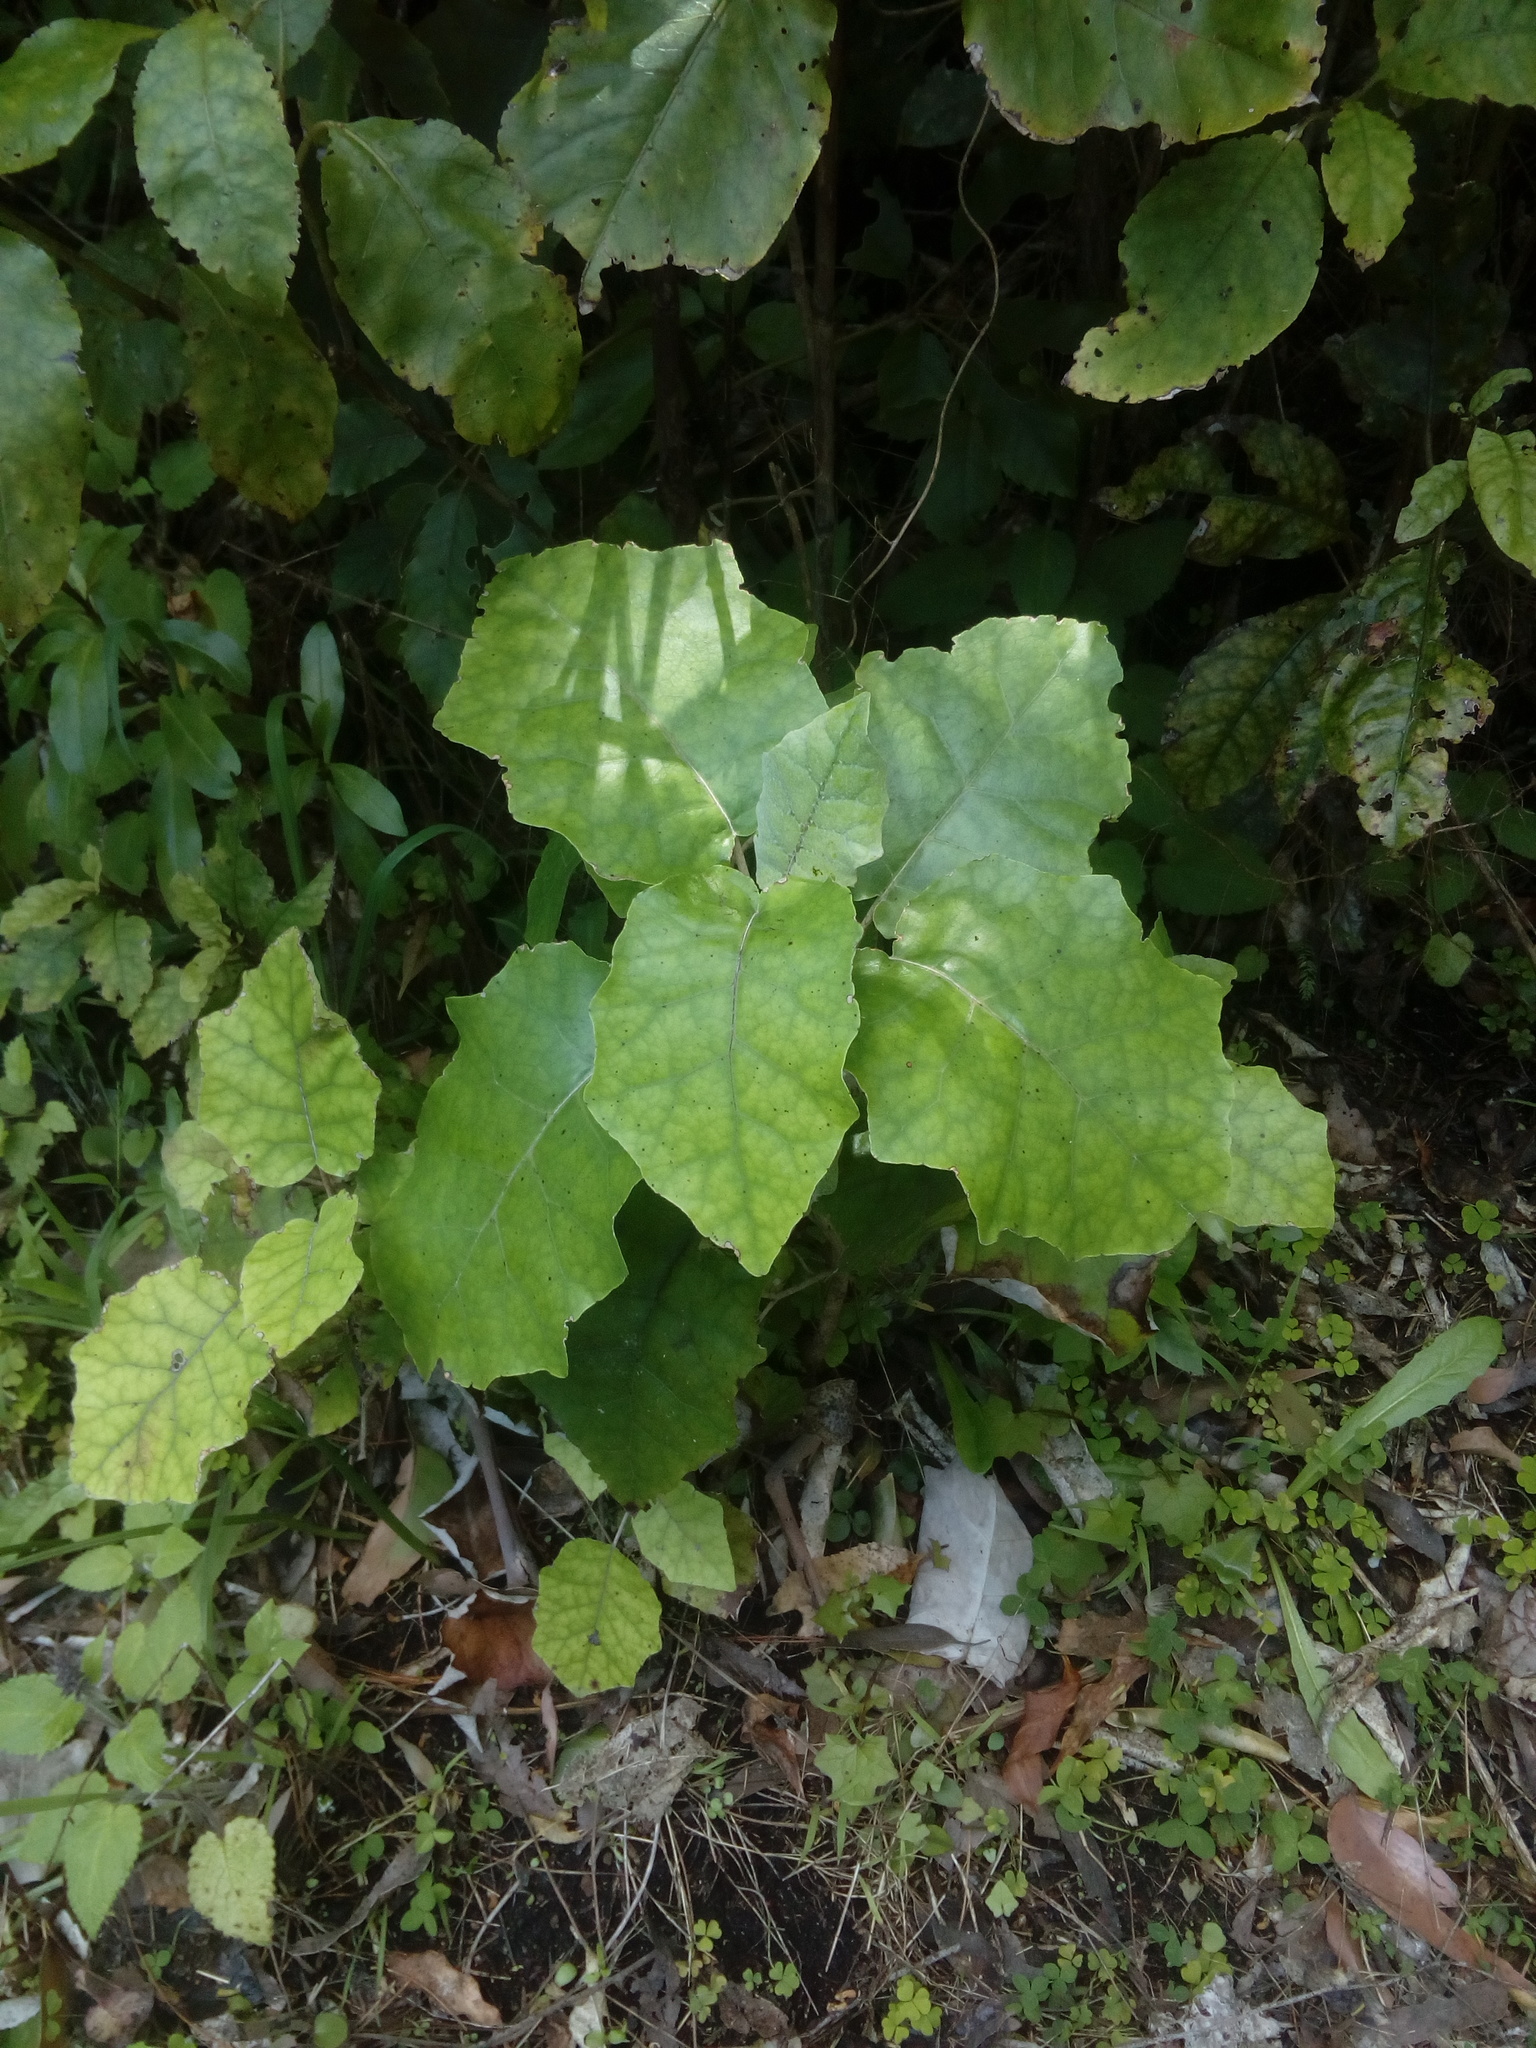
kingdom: Plantae
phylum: Tracheophyta
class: Magnoliopsida
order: Asterales
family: Asteraceae
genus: Brachyglottis
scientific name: Brachyglottis repanda
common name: Hedge ragwort
